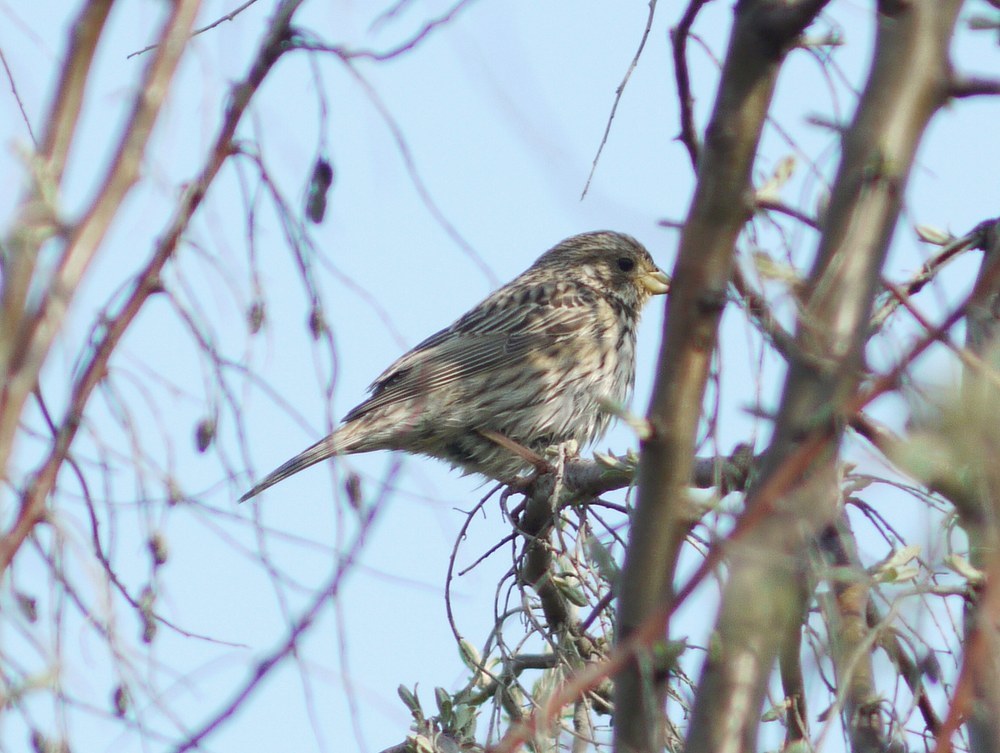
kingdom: Animalia
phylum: Chordata
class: Aves
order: Passeriformes
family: Emberizidae
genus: Emberiza
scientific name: Emberiza calandra
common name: Corn bunting
